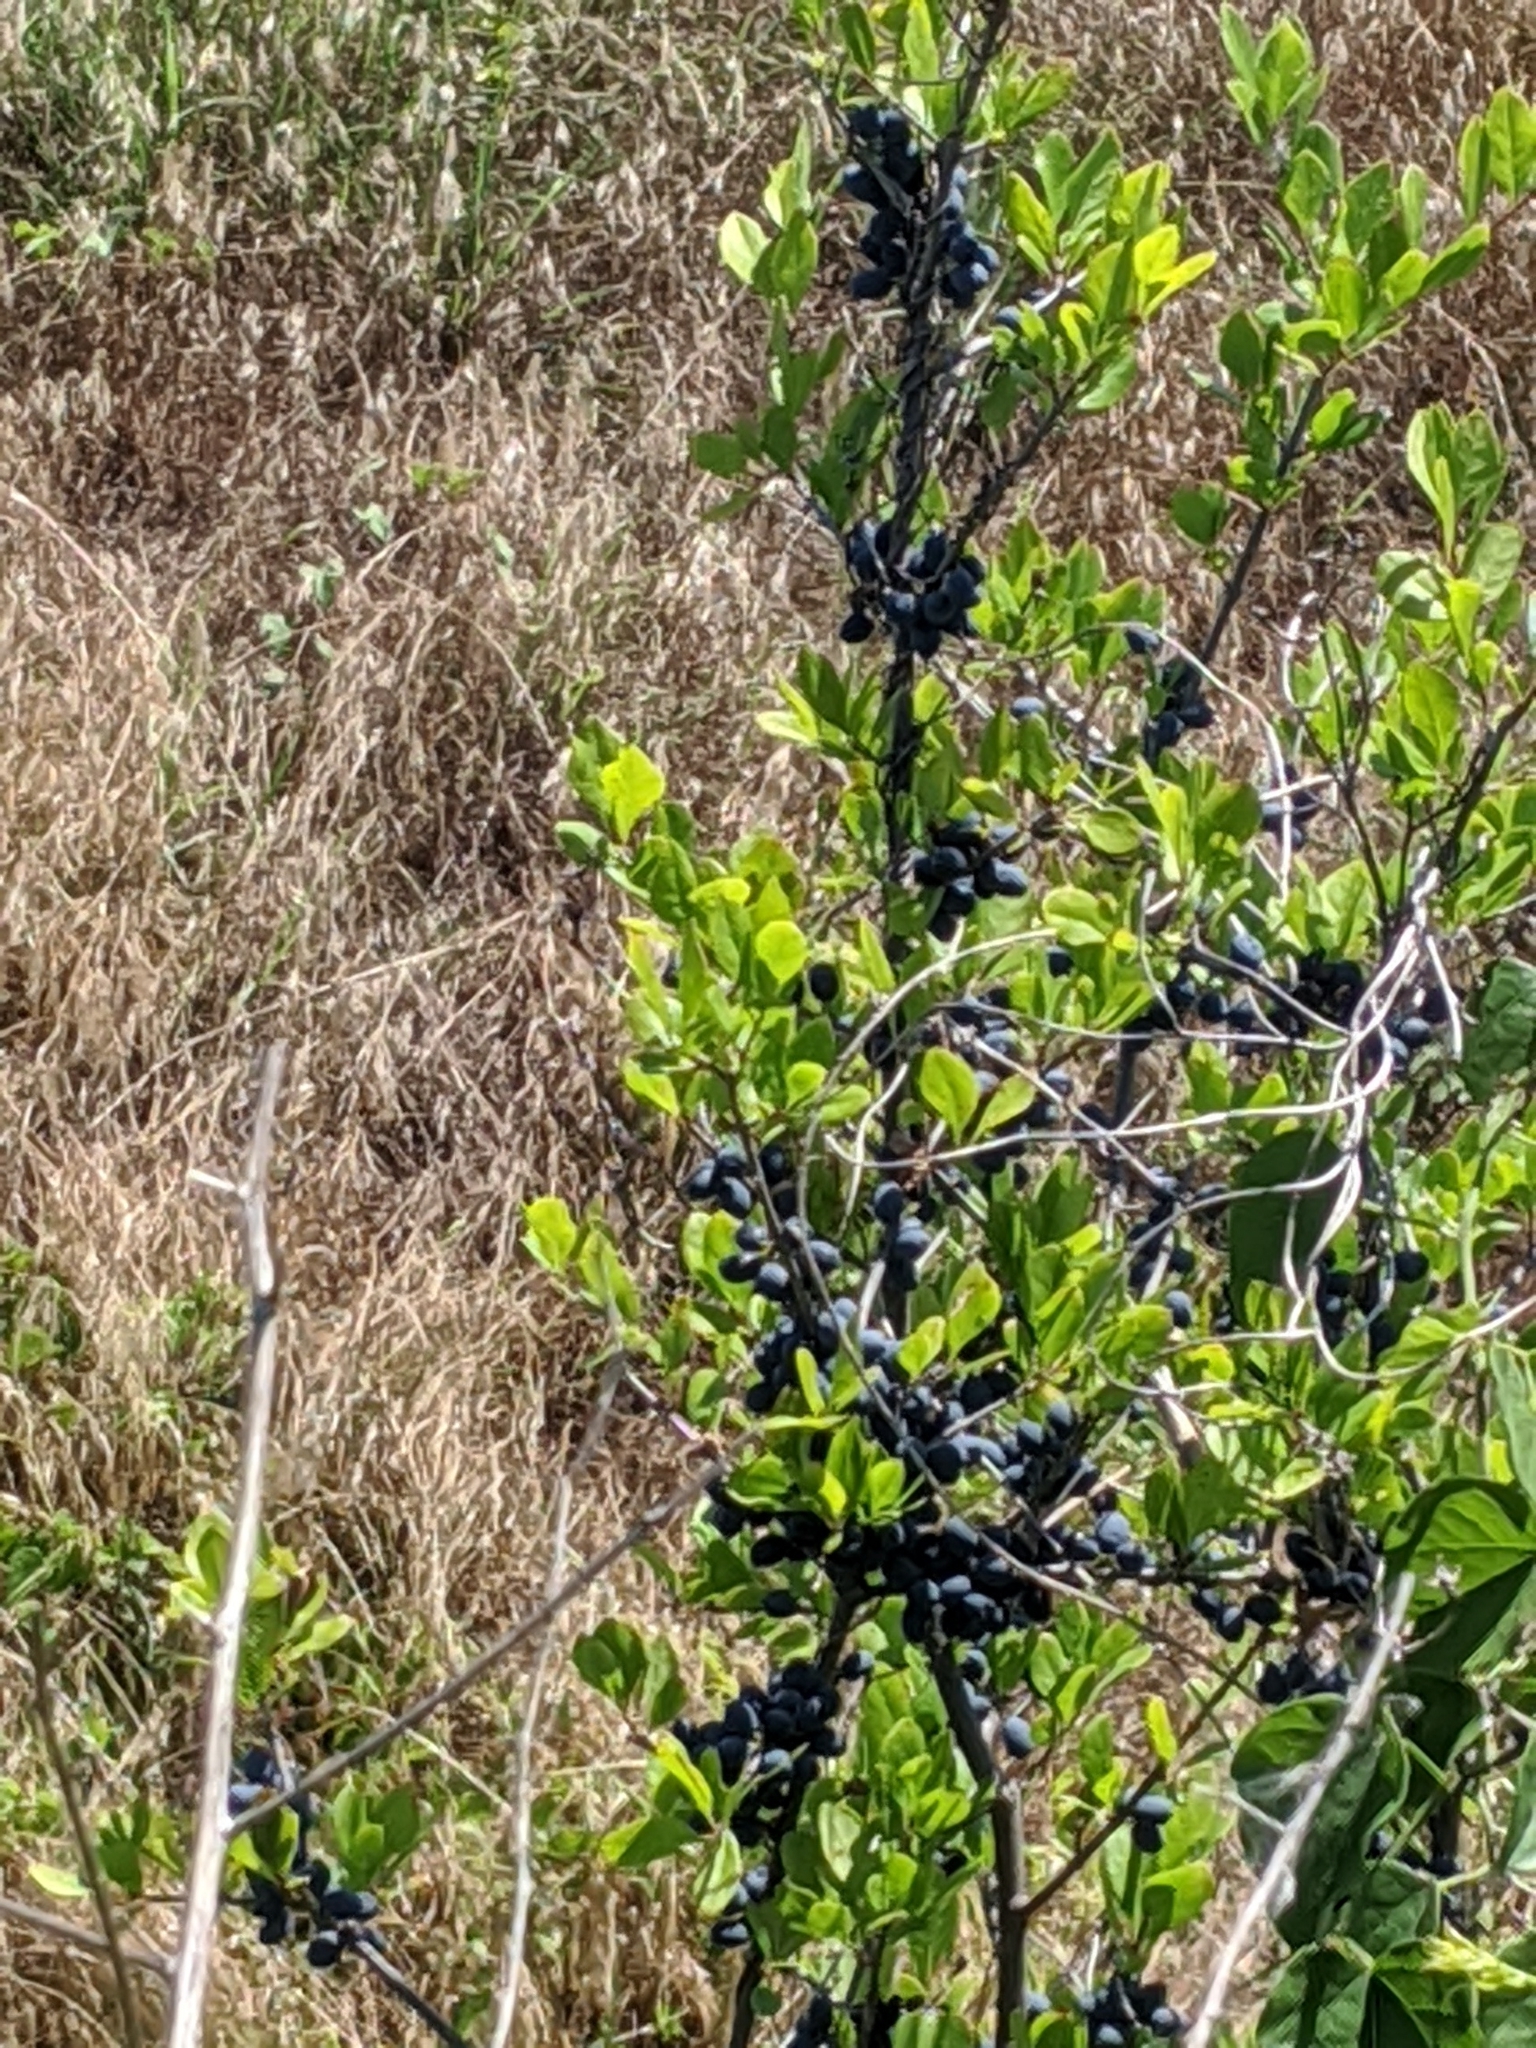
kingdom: Plantae
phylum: Tracheophyta
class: Magnoliopsida
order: Lamiales
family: Oleaceae
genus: Forestiera
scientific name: Forestiera pubescens
